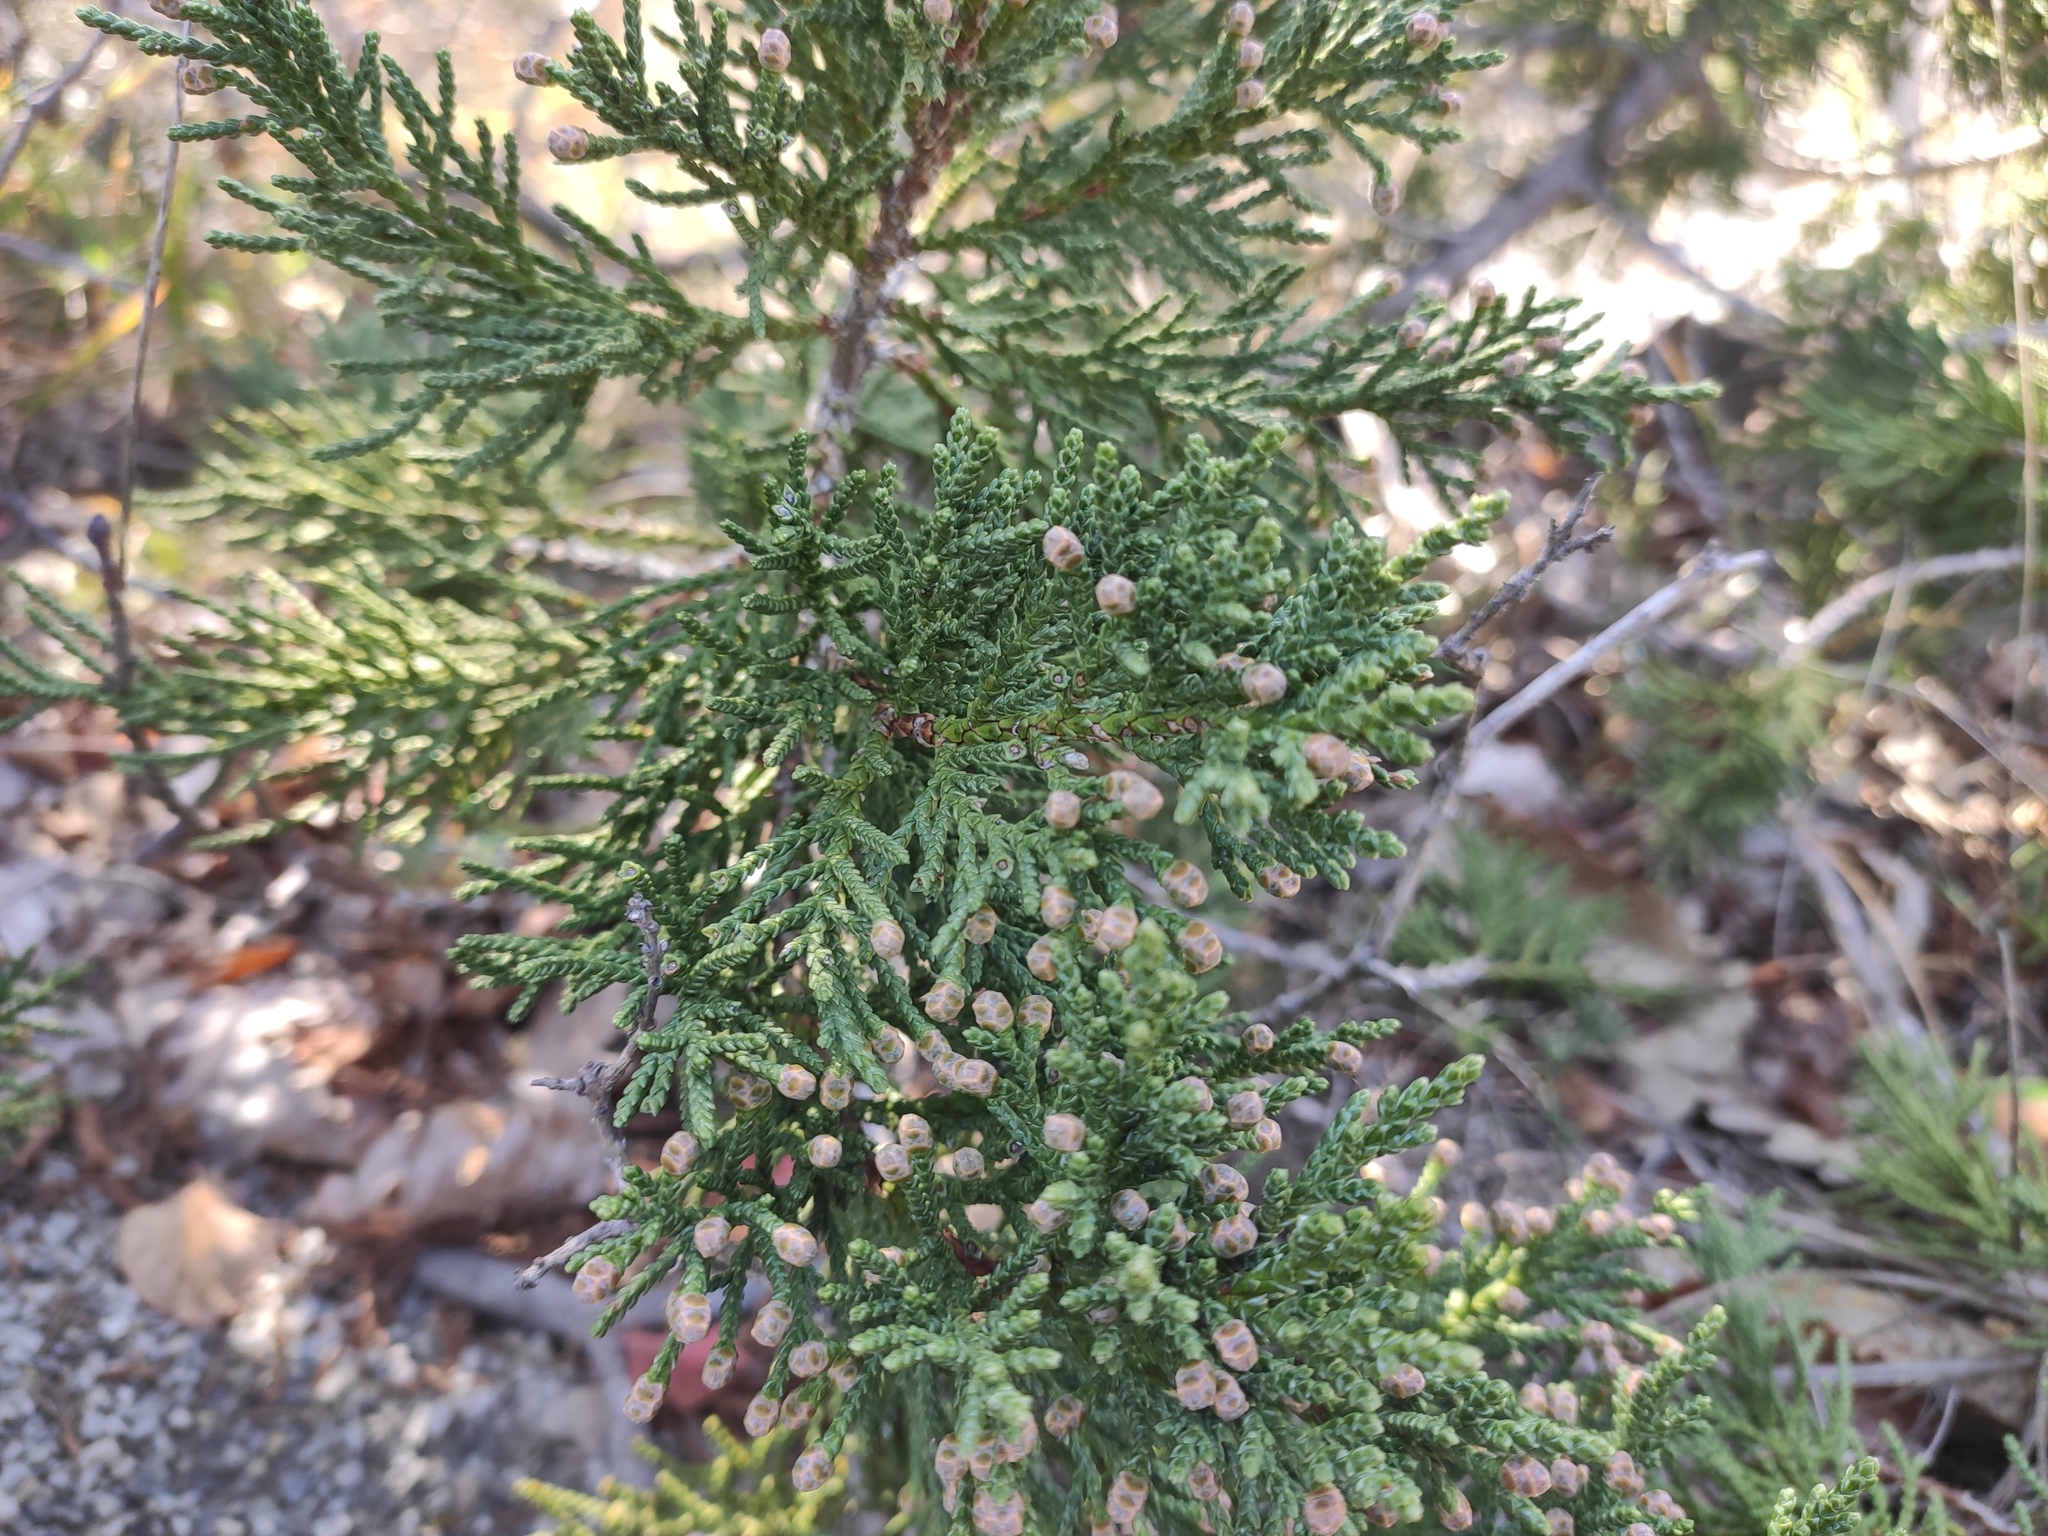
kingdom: Plantae
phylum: Tracheophyta
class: Pinopsida
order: Pinales
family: Cupressaceae
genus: Juniperus
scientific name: Juniperus excelsa
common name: Crimean juniper
